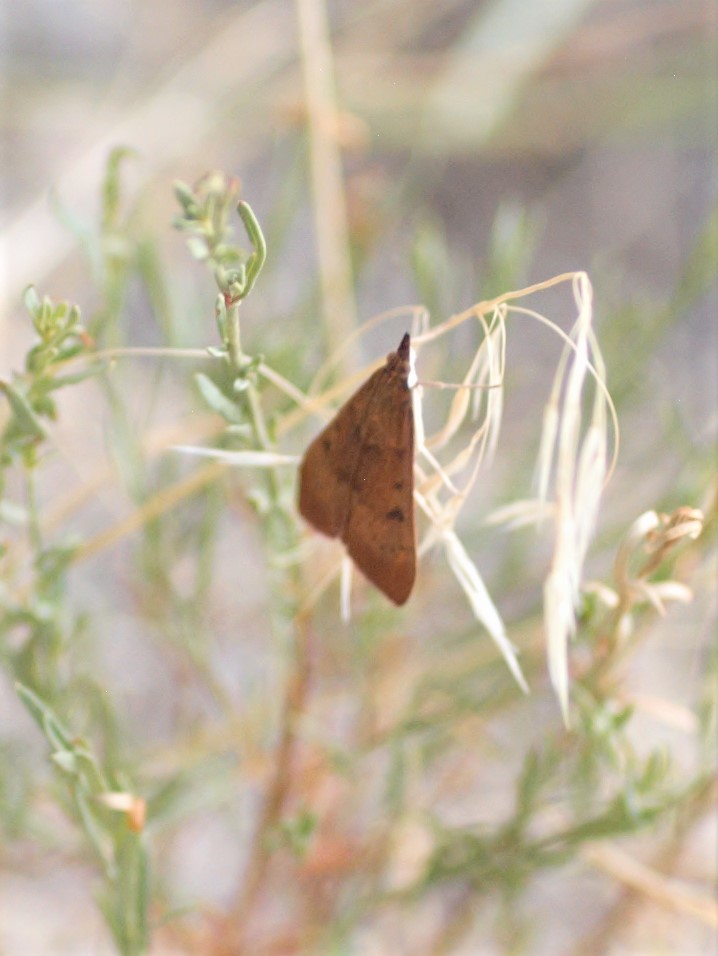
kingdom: Animalia
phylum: Arthropoda
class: Insecta
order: Lepidoptera
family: Crambidae
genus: Uresiphita
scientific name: Uresiphita reversalis
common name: Genista broom moth
